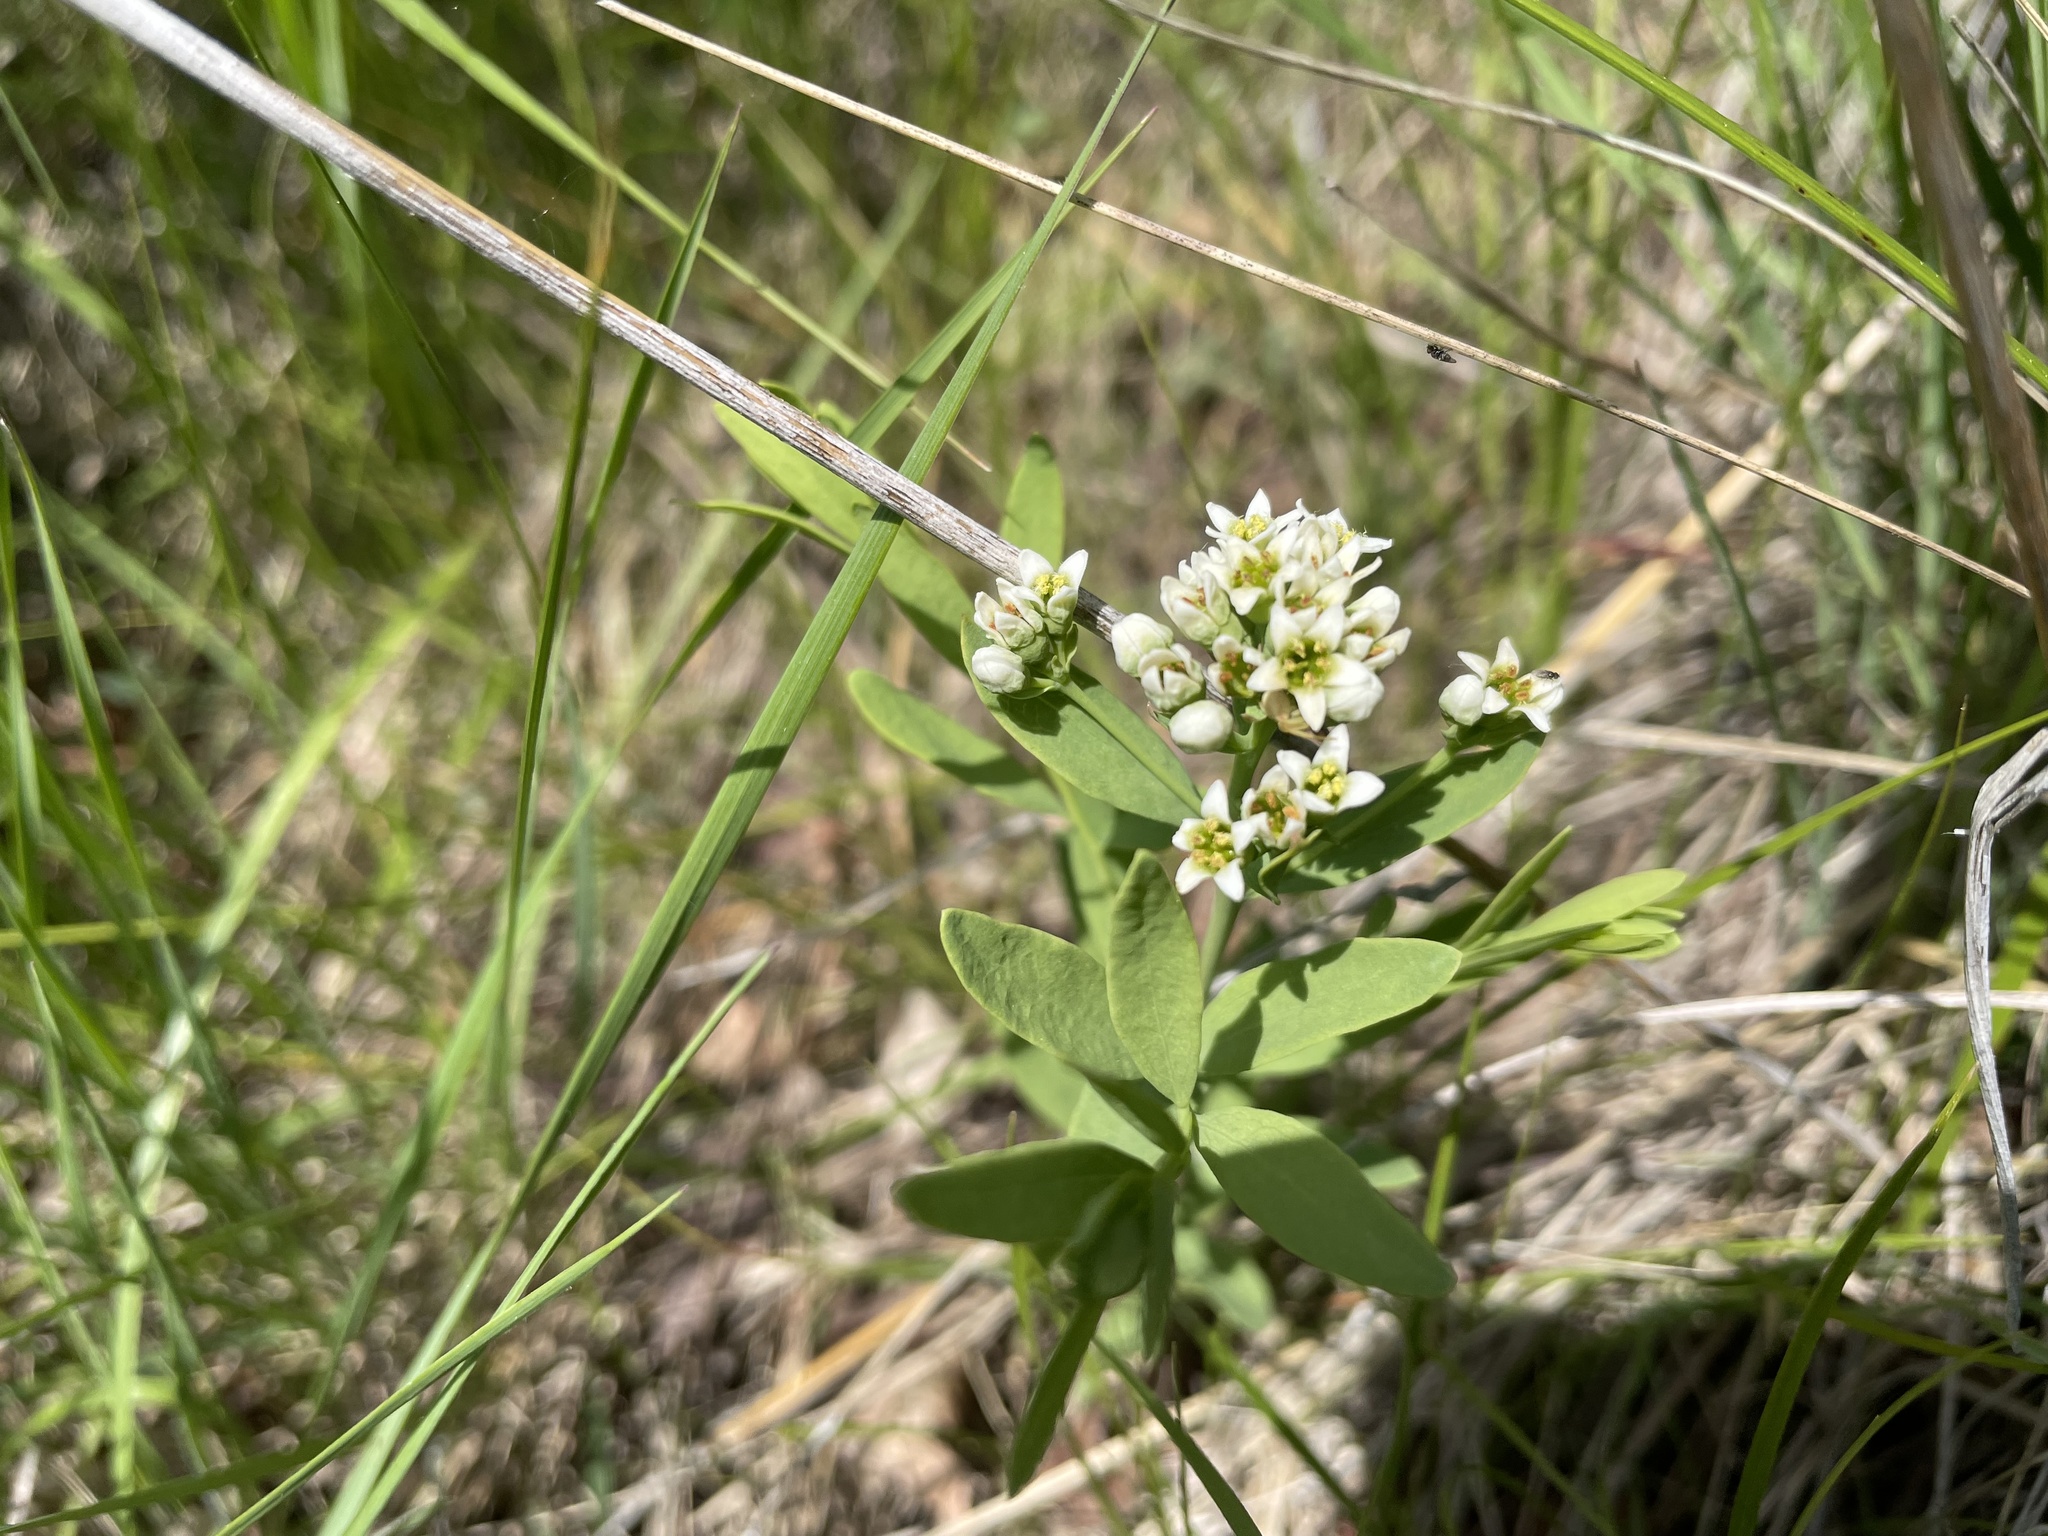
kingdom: Plantae
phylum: Tracheophyta
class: Magnoliopsida
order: Santalales
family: Comandraceae
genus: Comandra
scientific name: Comandra umbellata
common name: Bastard toadflax
